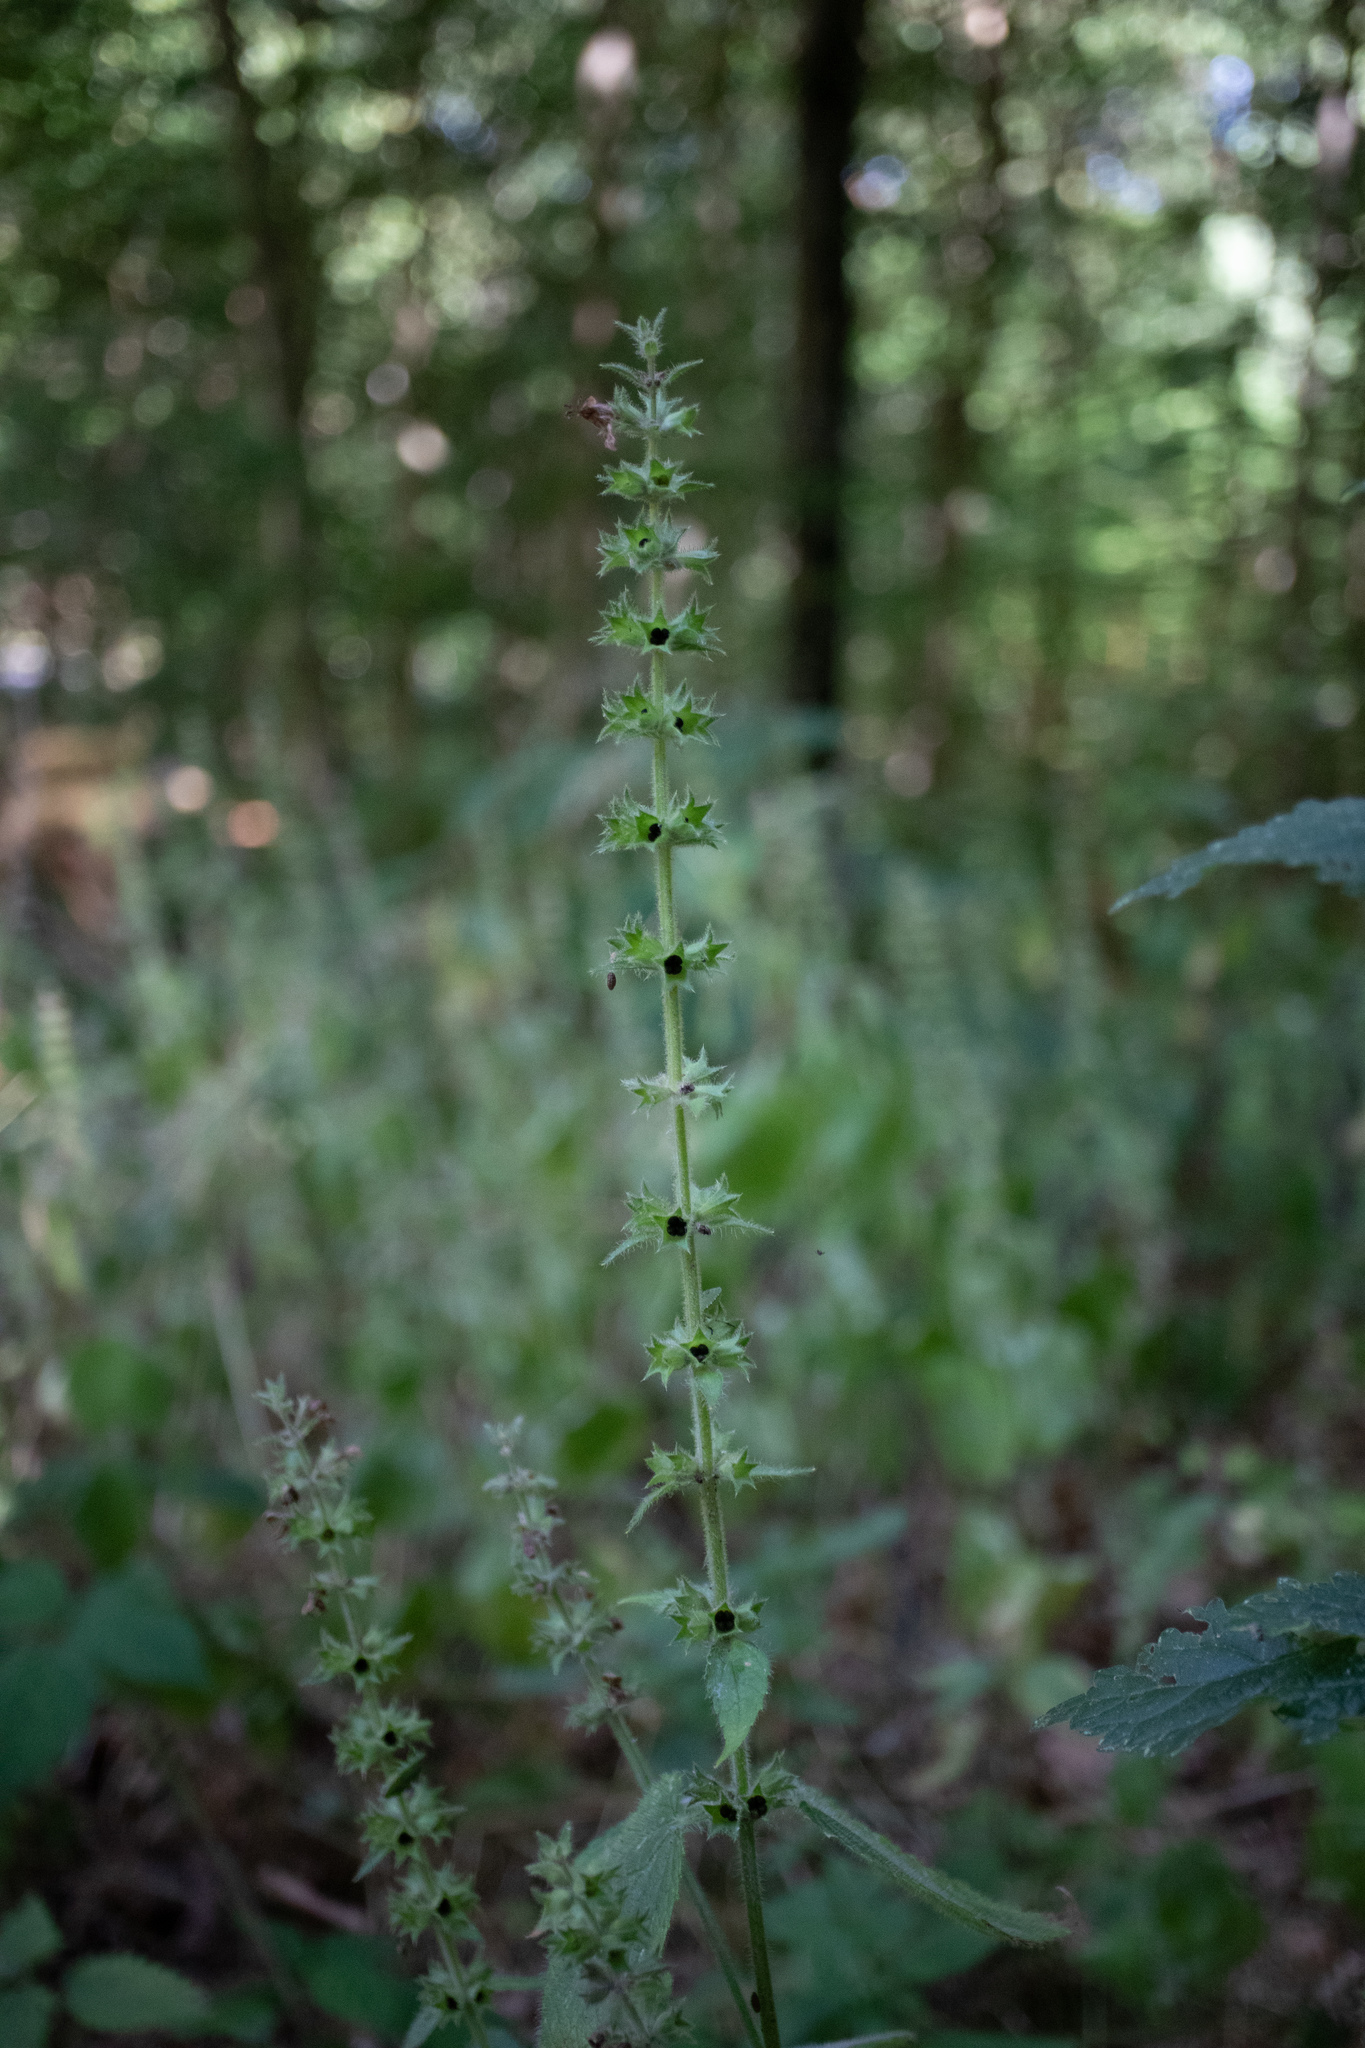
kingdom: Plantae
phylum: Tracheophyta
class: Magnoliopsida
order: Lamiales
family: Lamiaceae
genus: Stachys
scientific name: Stachys sylvatica
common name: Hedge woundwort
